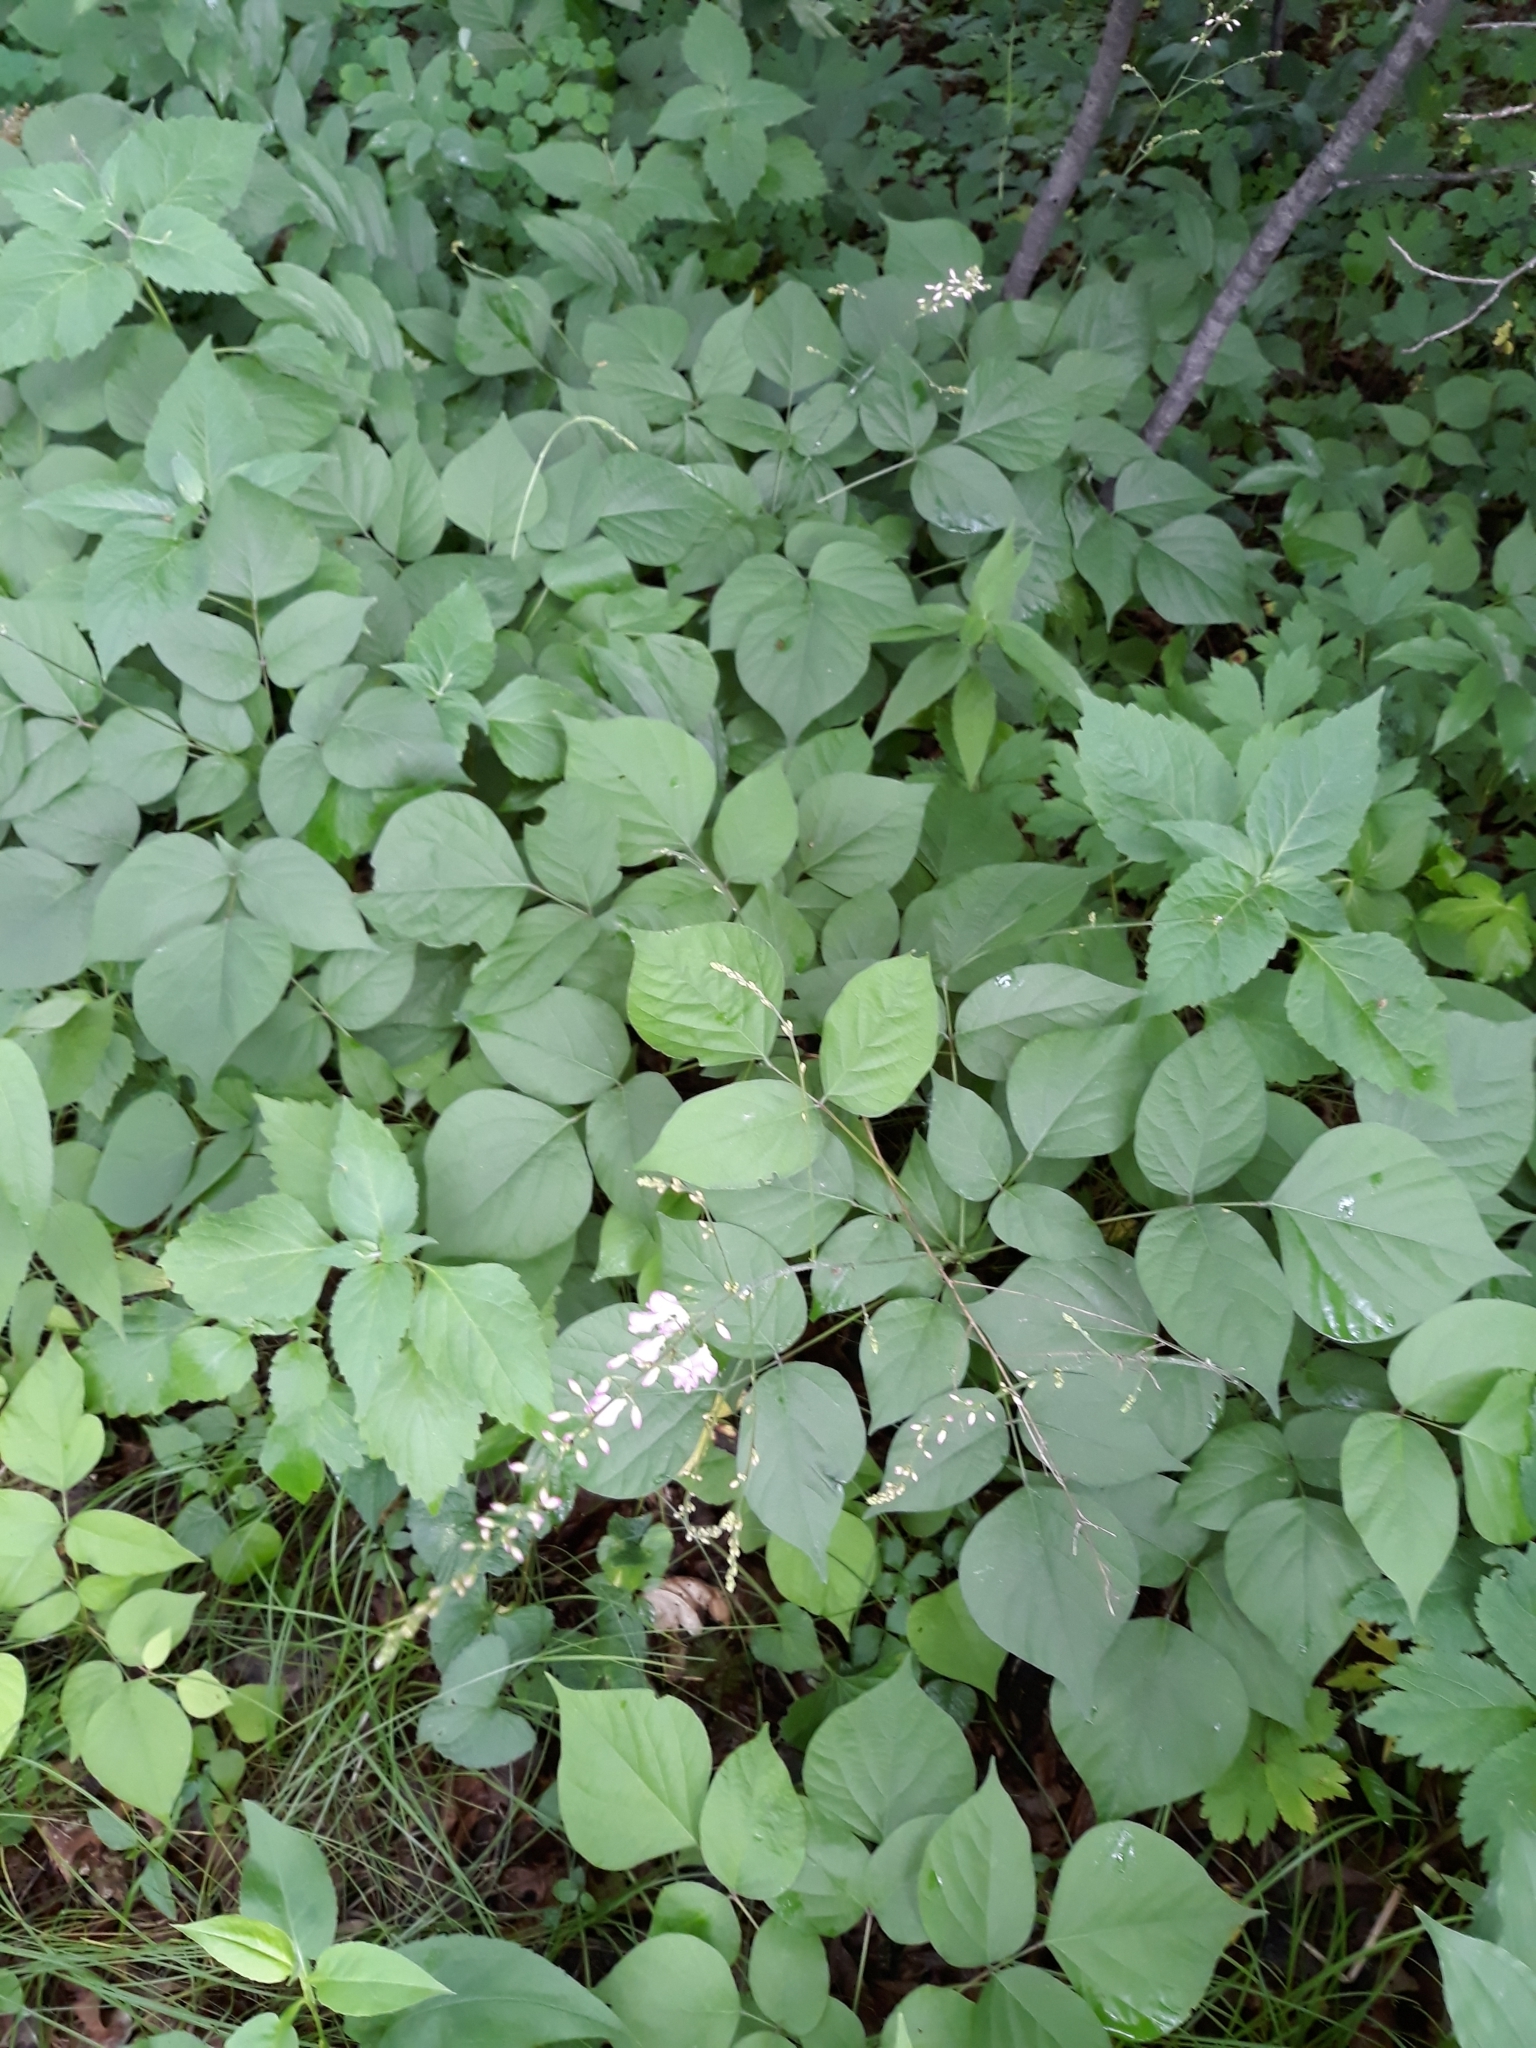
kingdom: Plantae
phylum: Tracheophyta
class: Magnoliopsida
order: Fabales
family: Fabaceae
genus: Hylodesmum
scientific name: Hylodesmum glutinosum
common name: Clustered-leaved tick-trefoil
